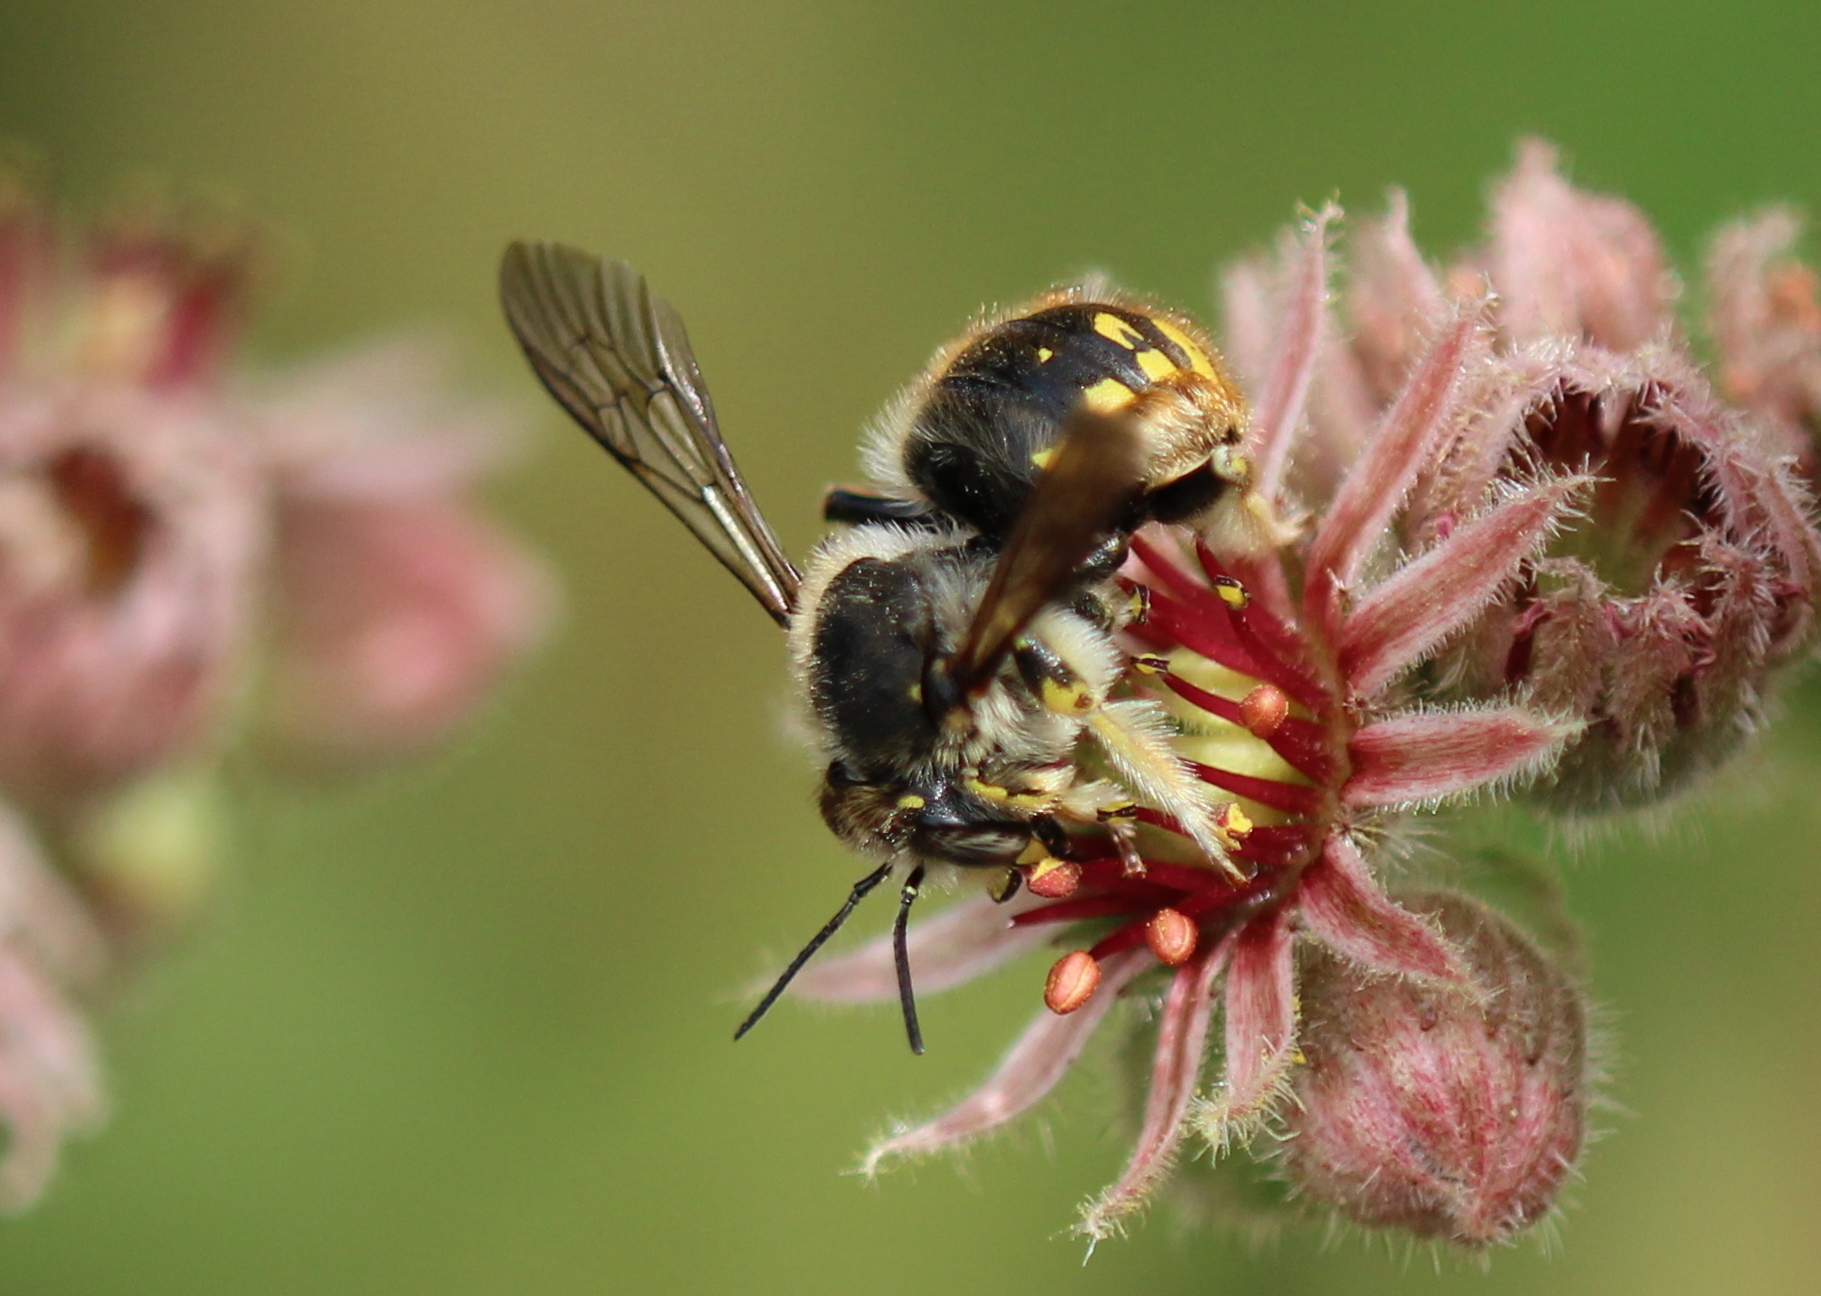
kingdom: Animalia
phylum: Arthropoda
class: Insecta
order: Hymenoptera
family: Megachilidae
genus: Anthidium
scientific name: Anthidium manicatum
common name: Wool carder bee
